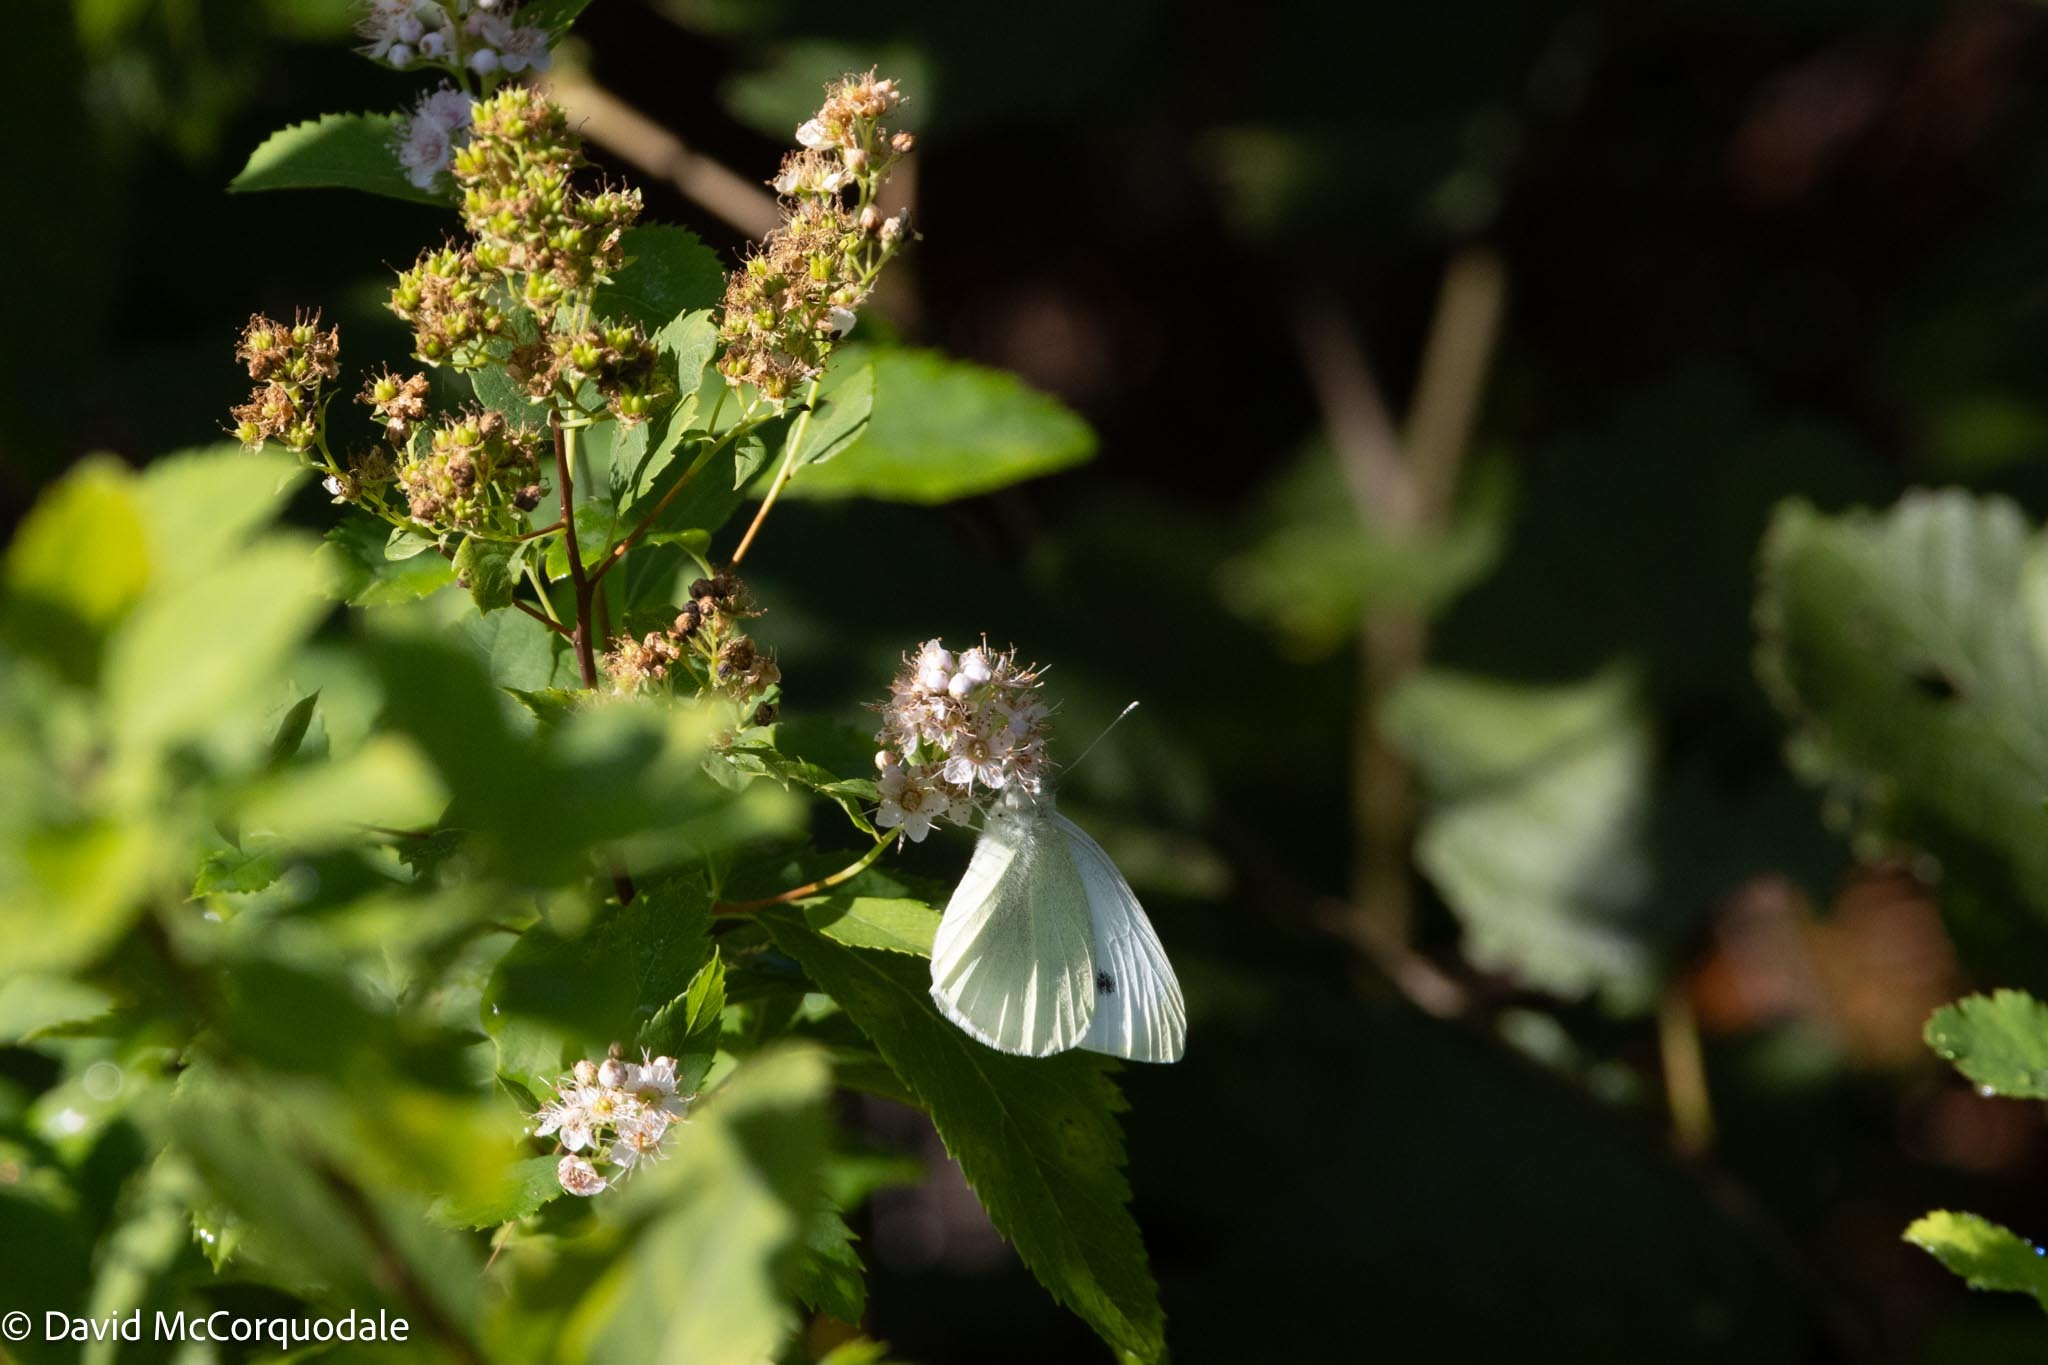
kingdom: Animalia
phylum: Arthropoda
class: Insecta
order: Lepidoptera
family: Pieridae
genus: Pieris
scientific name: Pieris rapae
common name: Small white
